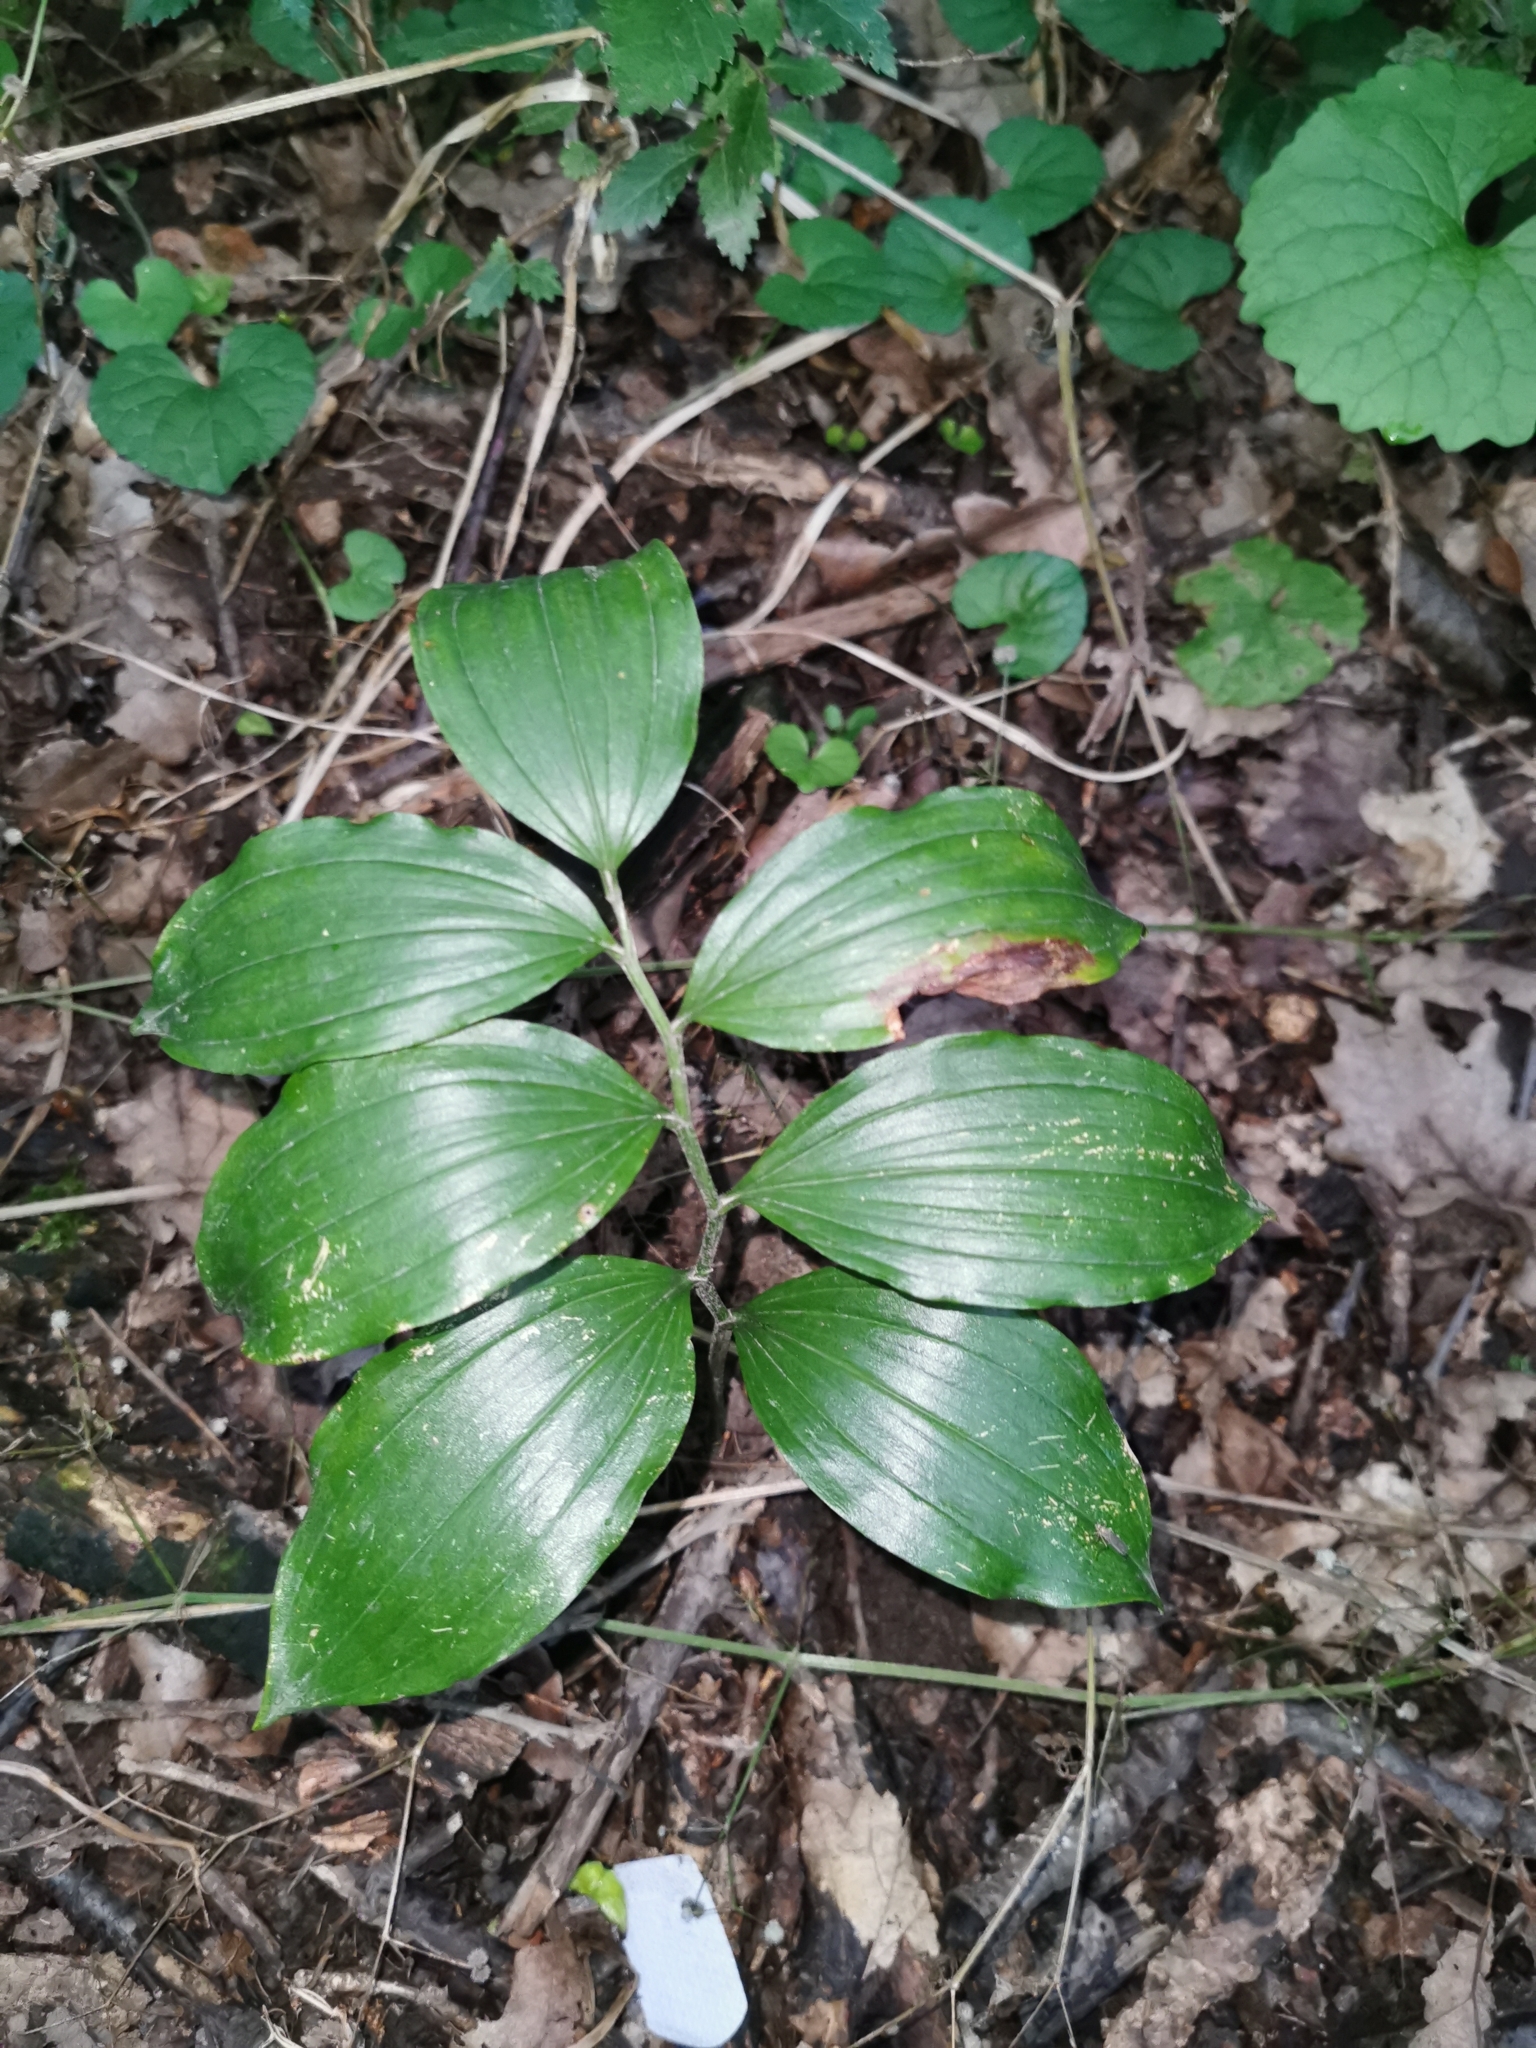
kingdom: Plantae
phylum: Tracheophyta
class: Liliopsida
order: Asparagales
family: Asparagaceae
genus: Polygonatum
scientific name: Polygonatum latifolium
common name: Broadleaf solomon's seal
